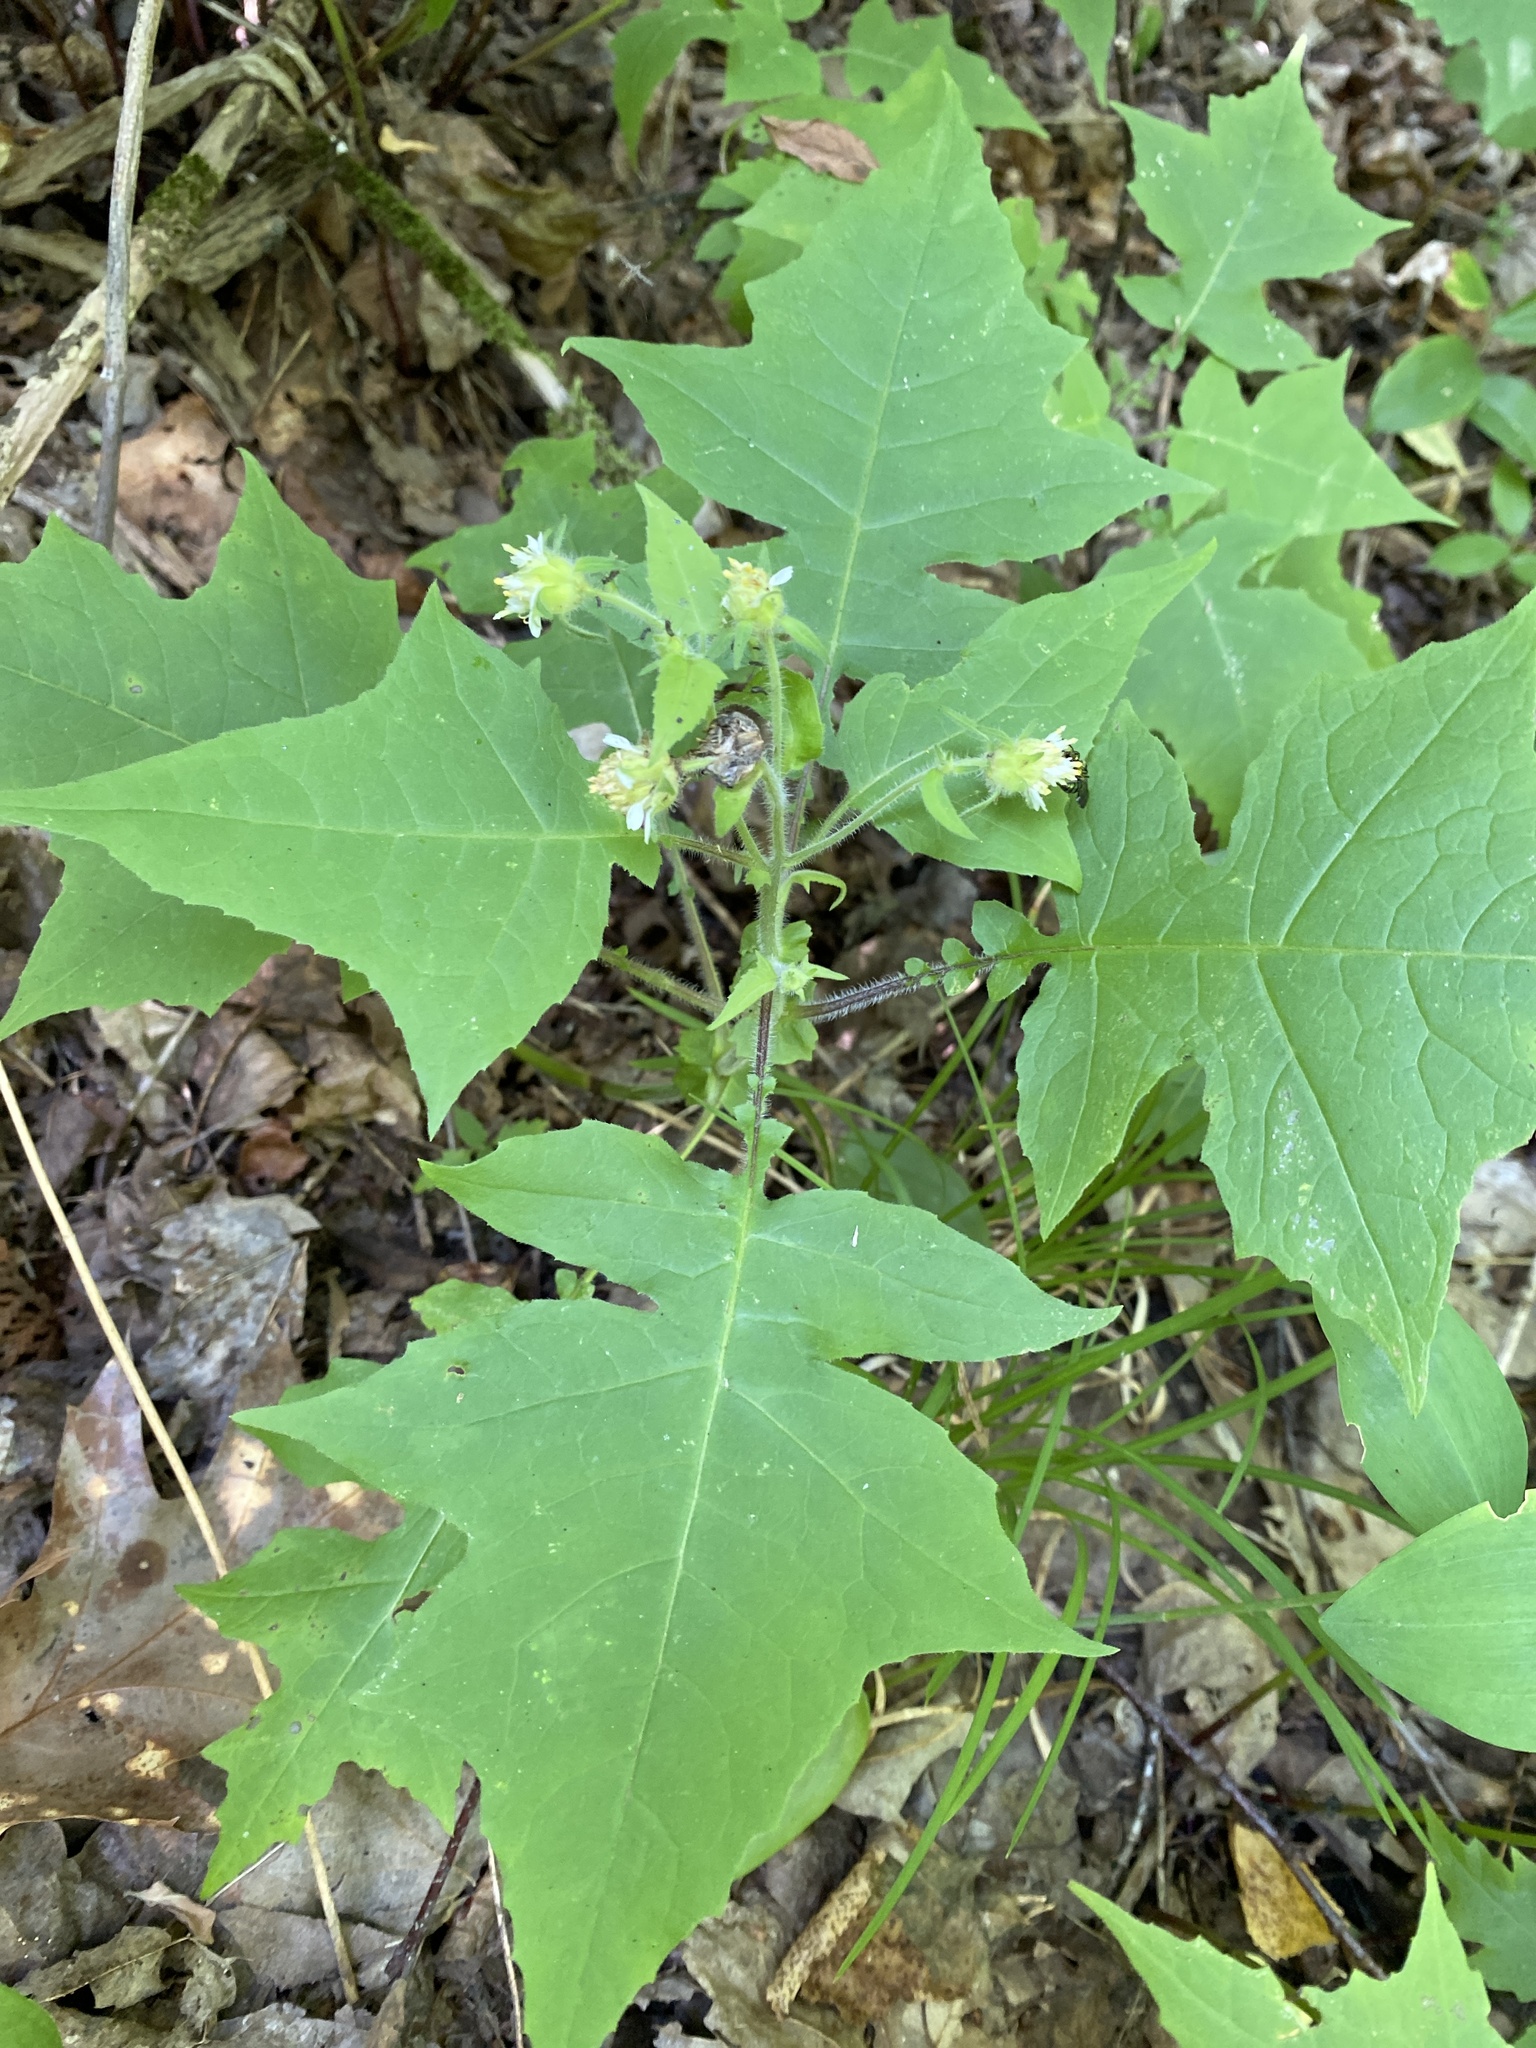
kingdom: Plantae
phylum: Tracheophyta
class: Magnoliopsida
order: Asterales
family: Asteraceae
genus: Polymnia
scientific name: Polymnia canadensis
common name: Pale-flowered leafcup
